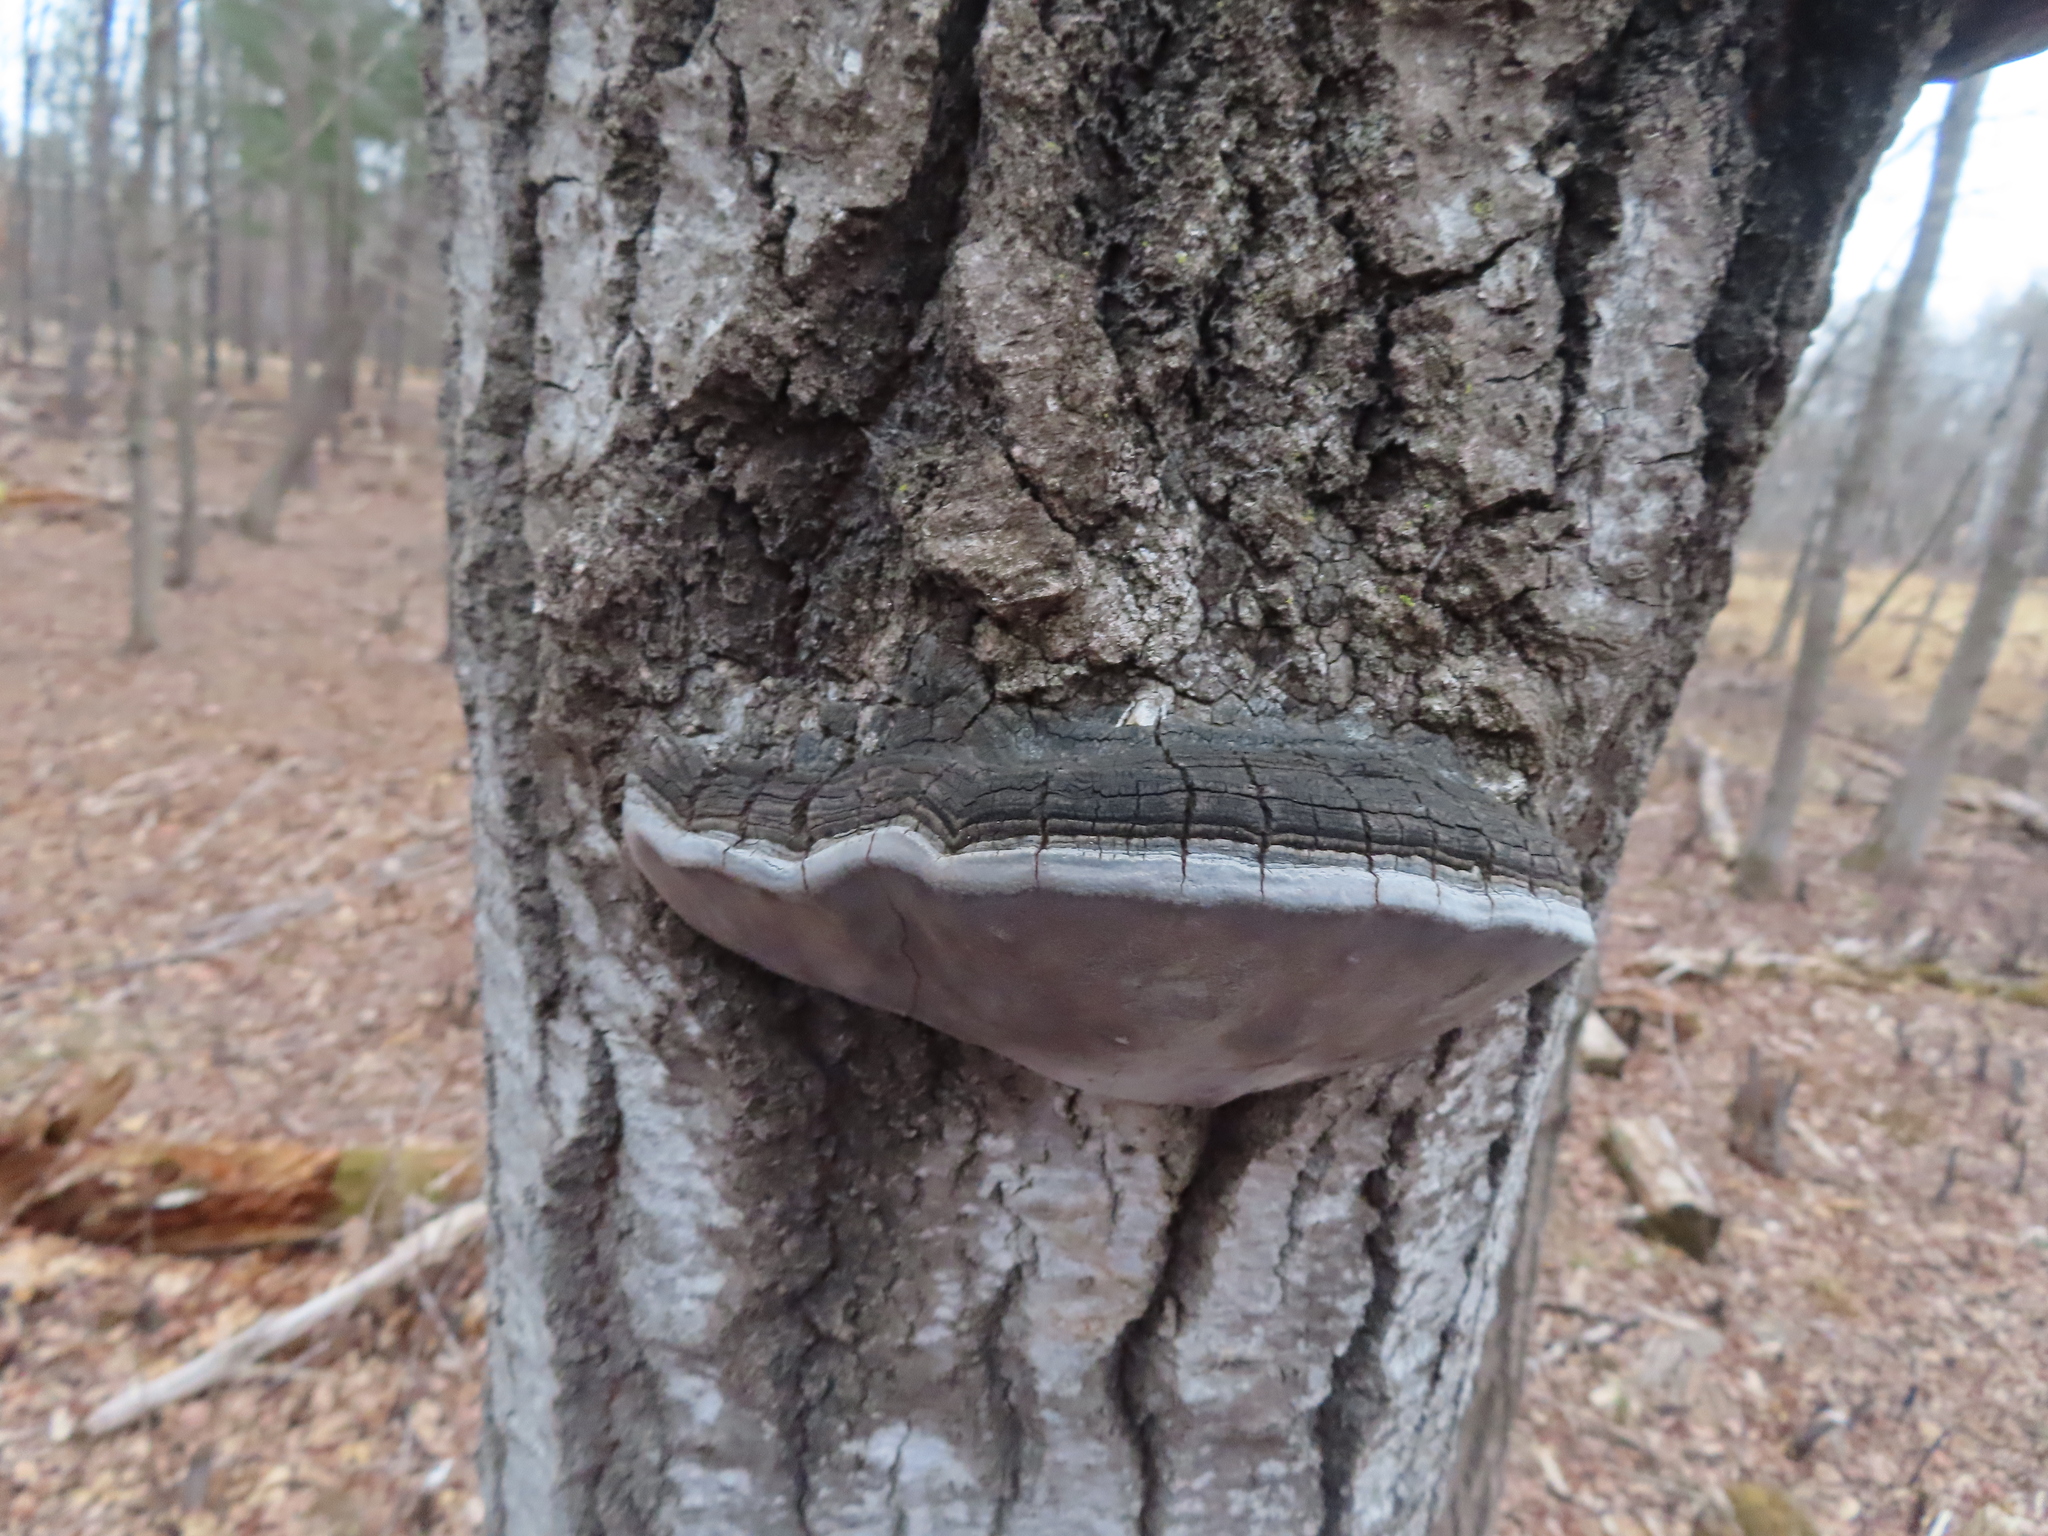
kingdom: Fungi
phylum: Basidiomycota
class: Agaricomycetes
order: Hymenochaetales
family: Hymenochaetaceae
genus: Phellinus
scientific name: Phellinus tremulae
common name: Aspen bracket
